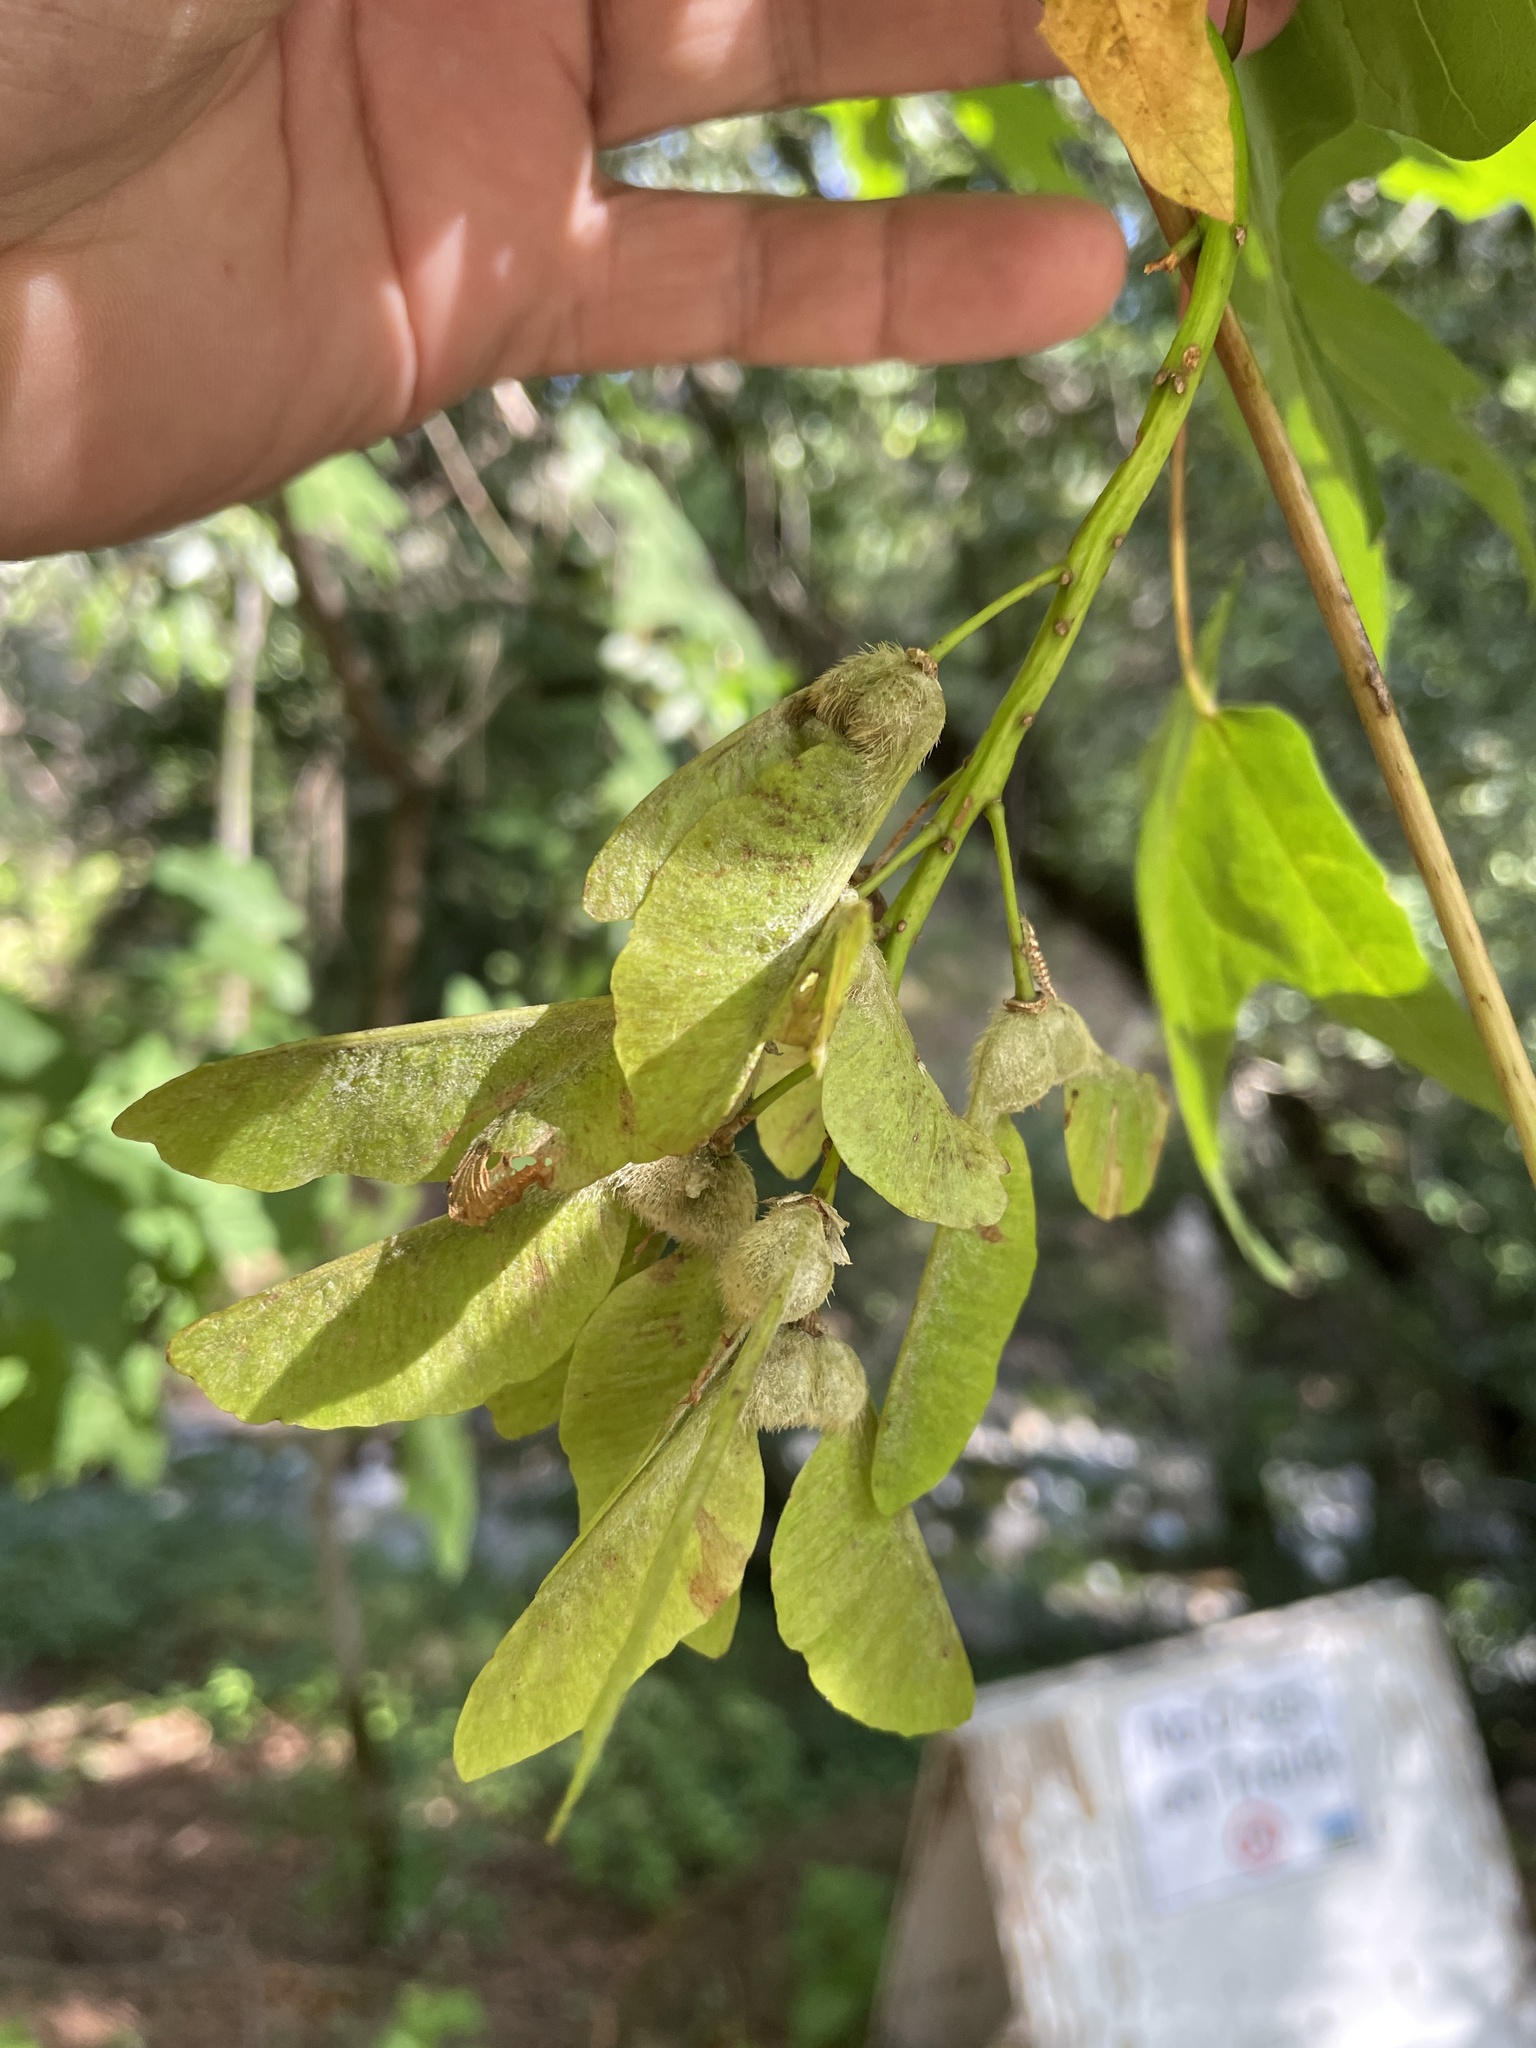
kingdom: Plantae
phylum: Tracheophyta
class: Magnoliopsida
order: Sapindales
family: Sapindaceae
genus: Acer
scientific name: Acer macrophyllum
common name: Oregon maple
